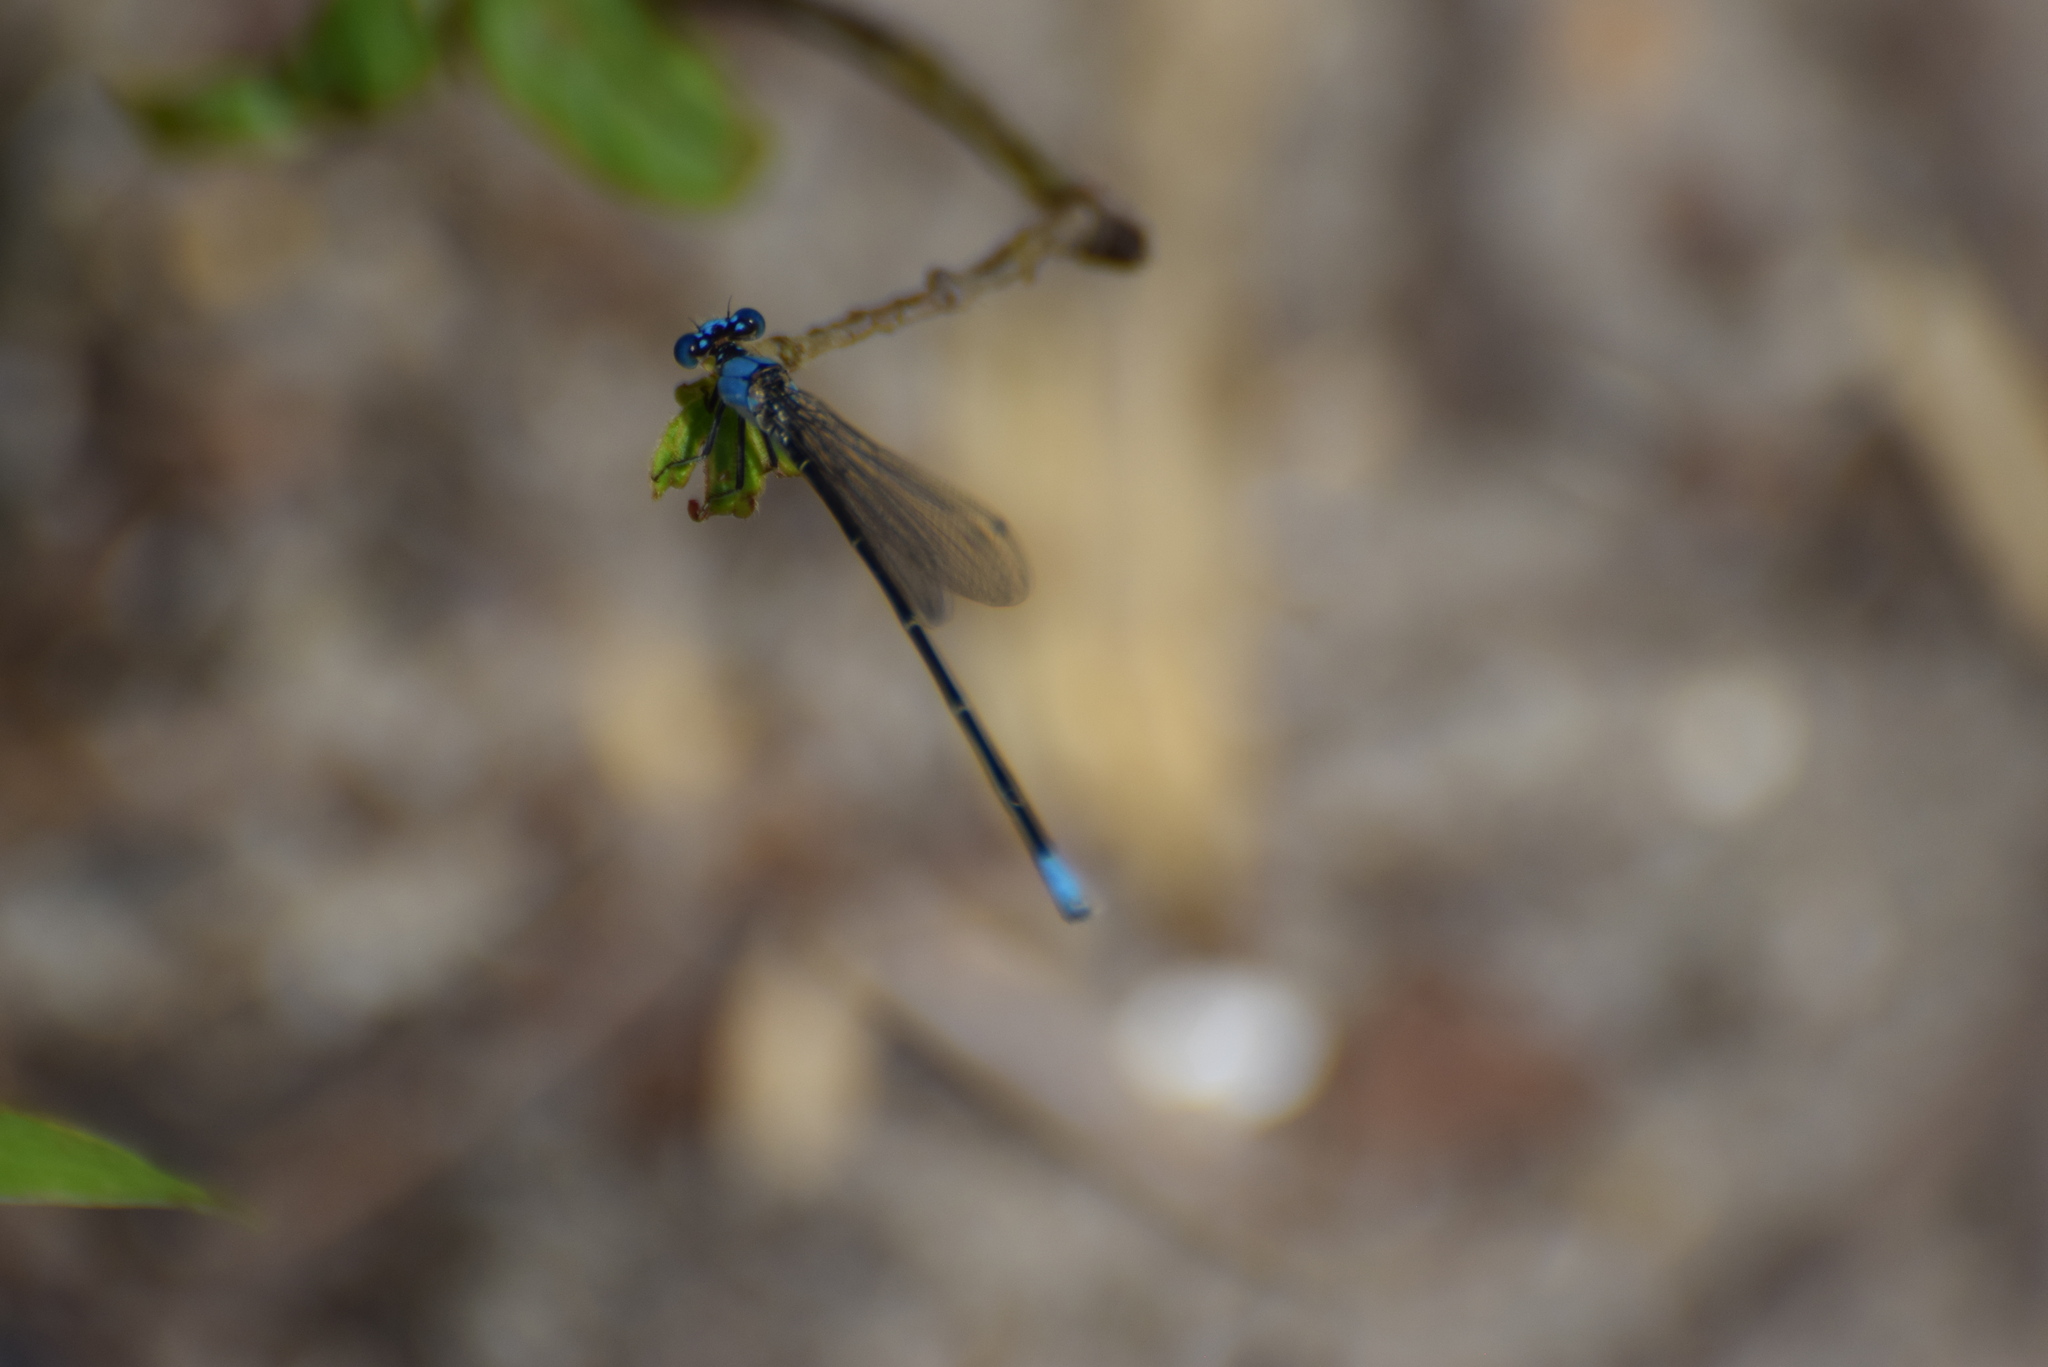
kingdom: Animalia
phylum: Arthropoda
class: Insecta
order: Odonata
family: Coenagrionidae
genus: Argia
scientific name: Argia apicalis
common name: Blue-fronted dancer
